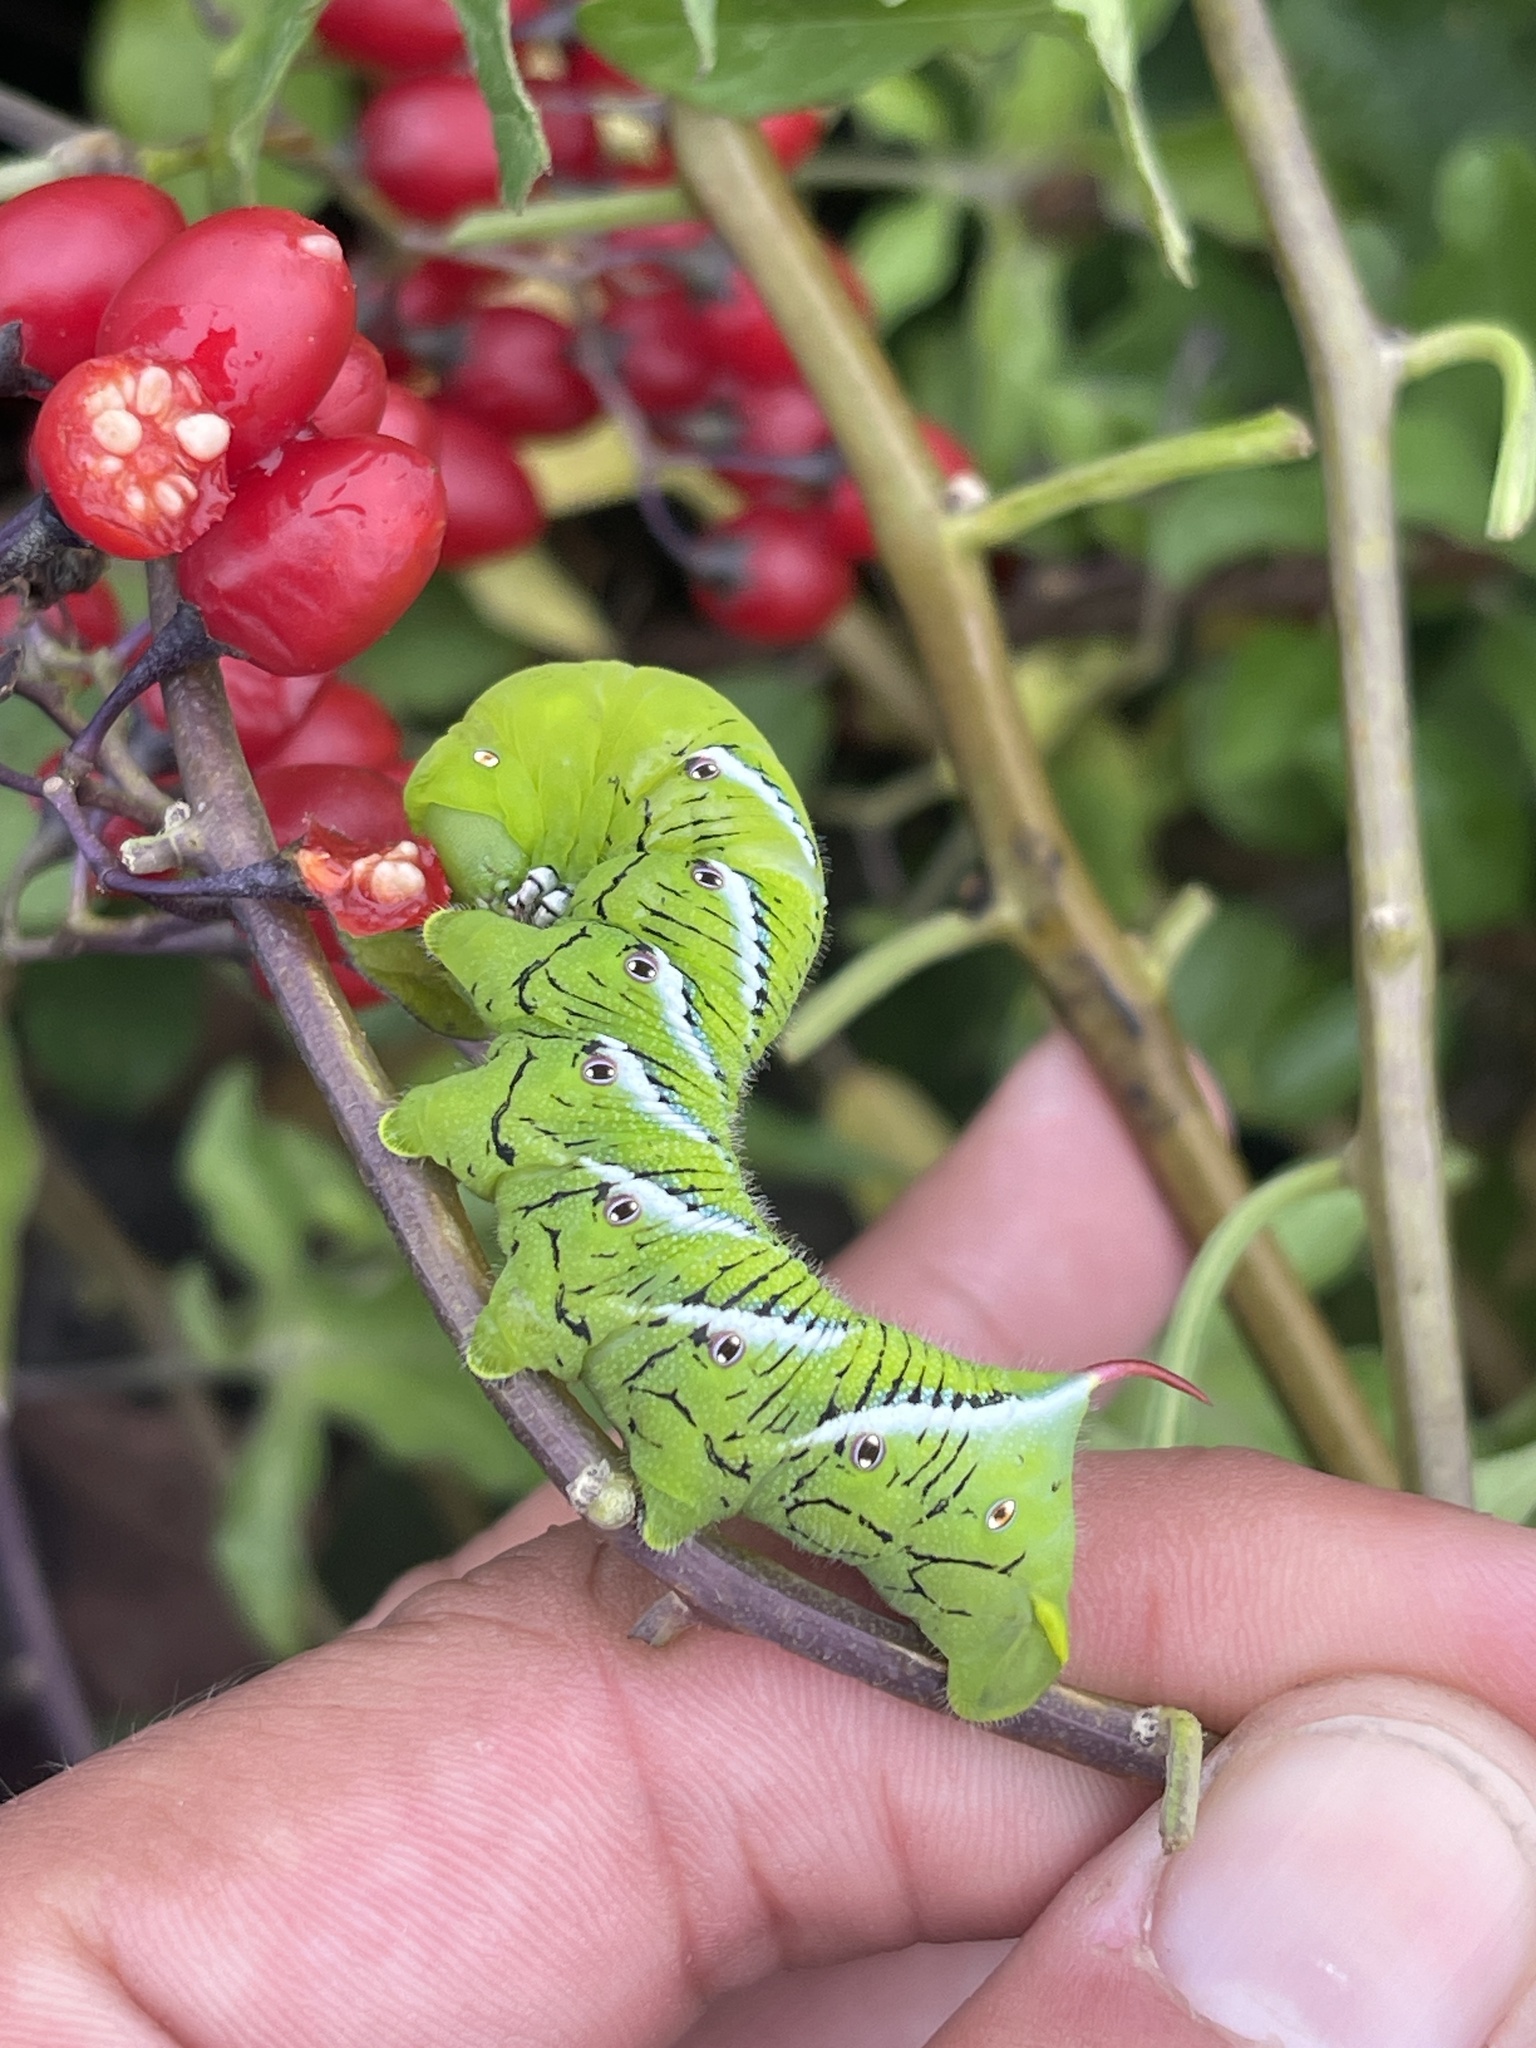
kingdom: Animalia
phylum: Arthropoda
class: Insecta
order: Lepidoptera
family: Sphingidae
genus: Manduca
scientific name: Manduca sexta
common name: Carolina sphinx
